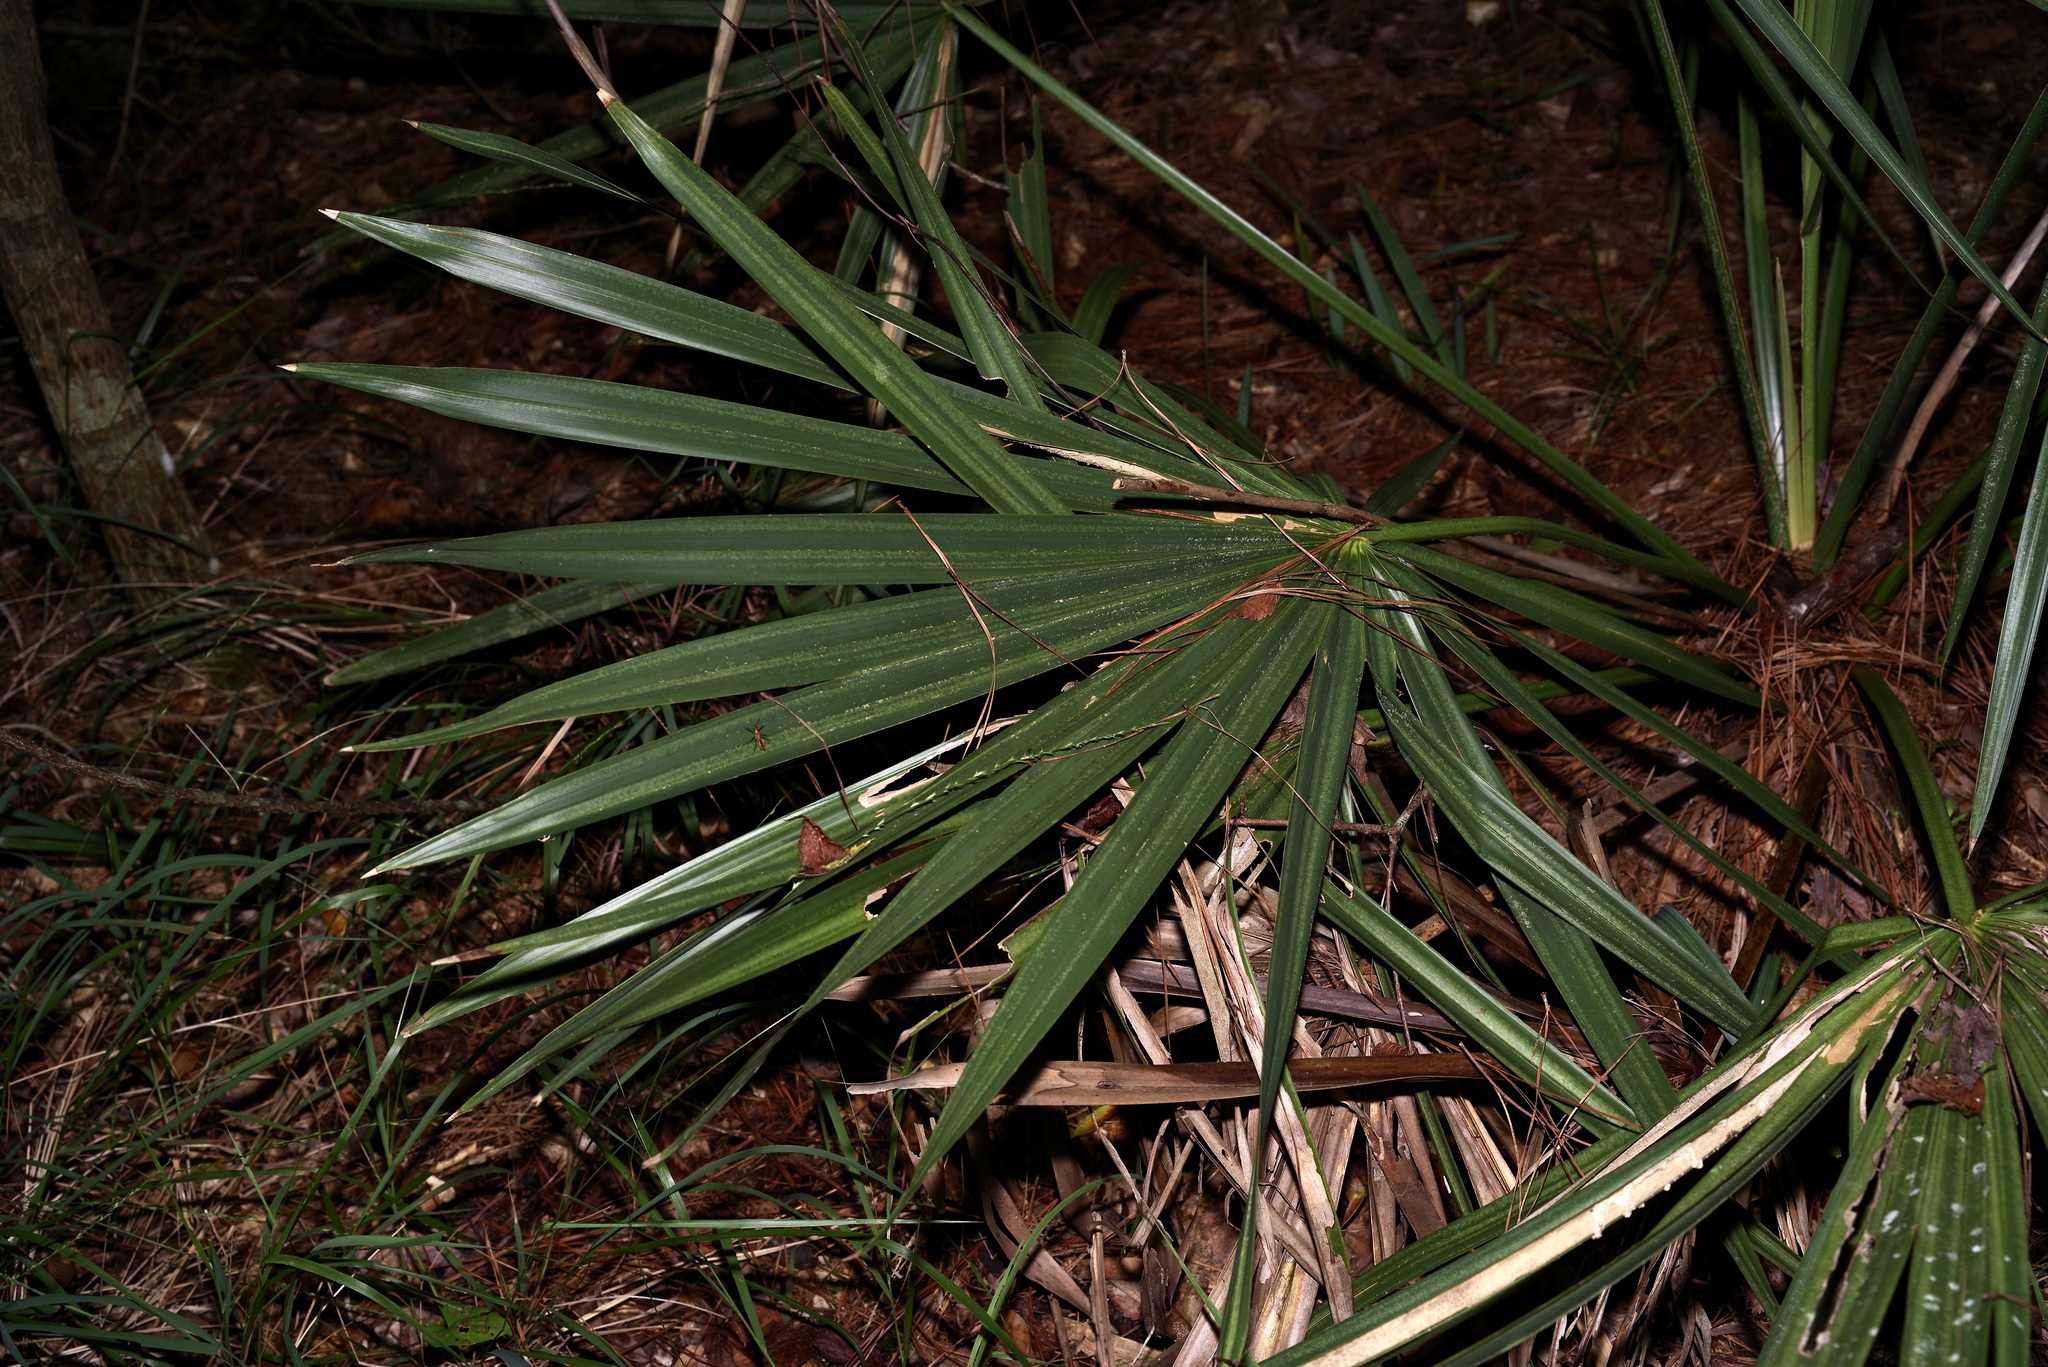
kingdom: Plantae
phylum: Tracheophyta
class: Liliopsida
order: Arecales
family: Arecaceae
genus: Sabal
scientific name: Sabal minor
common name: Dwarf palmetto
